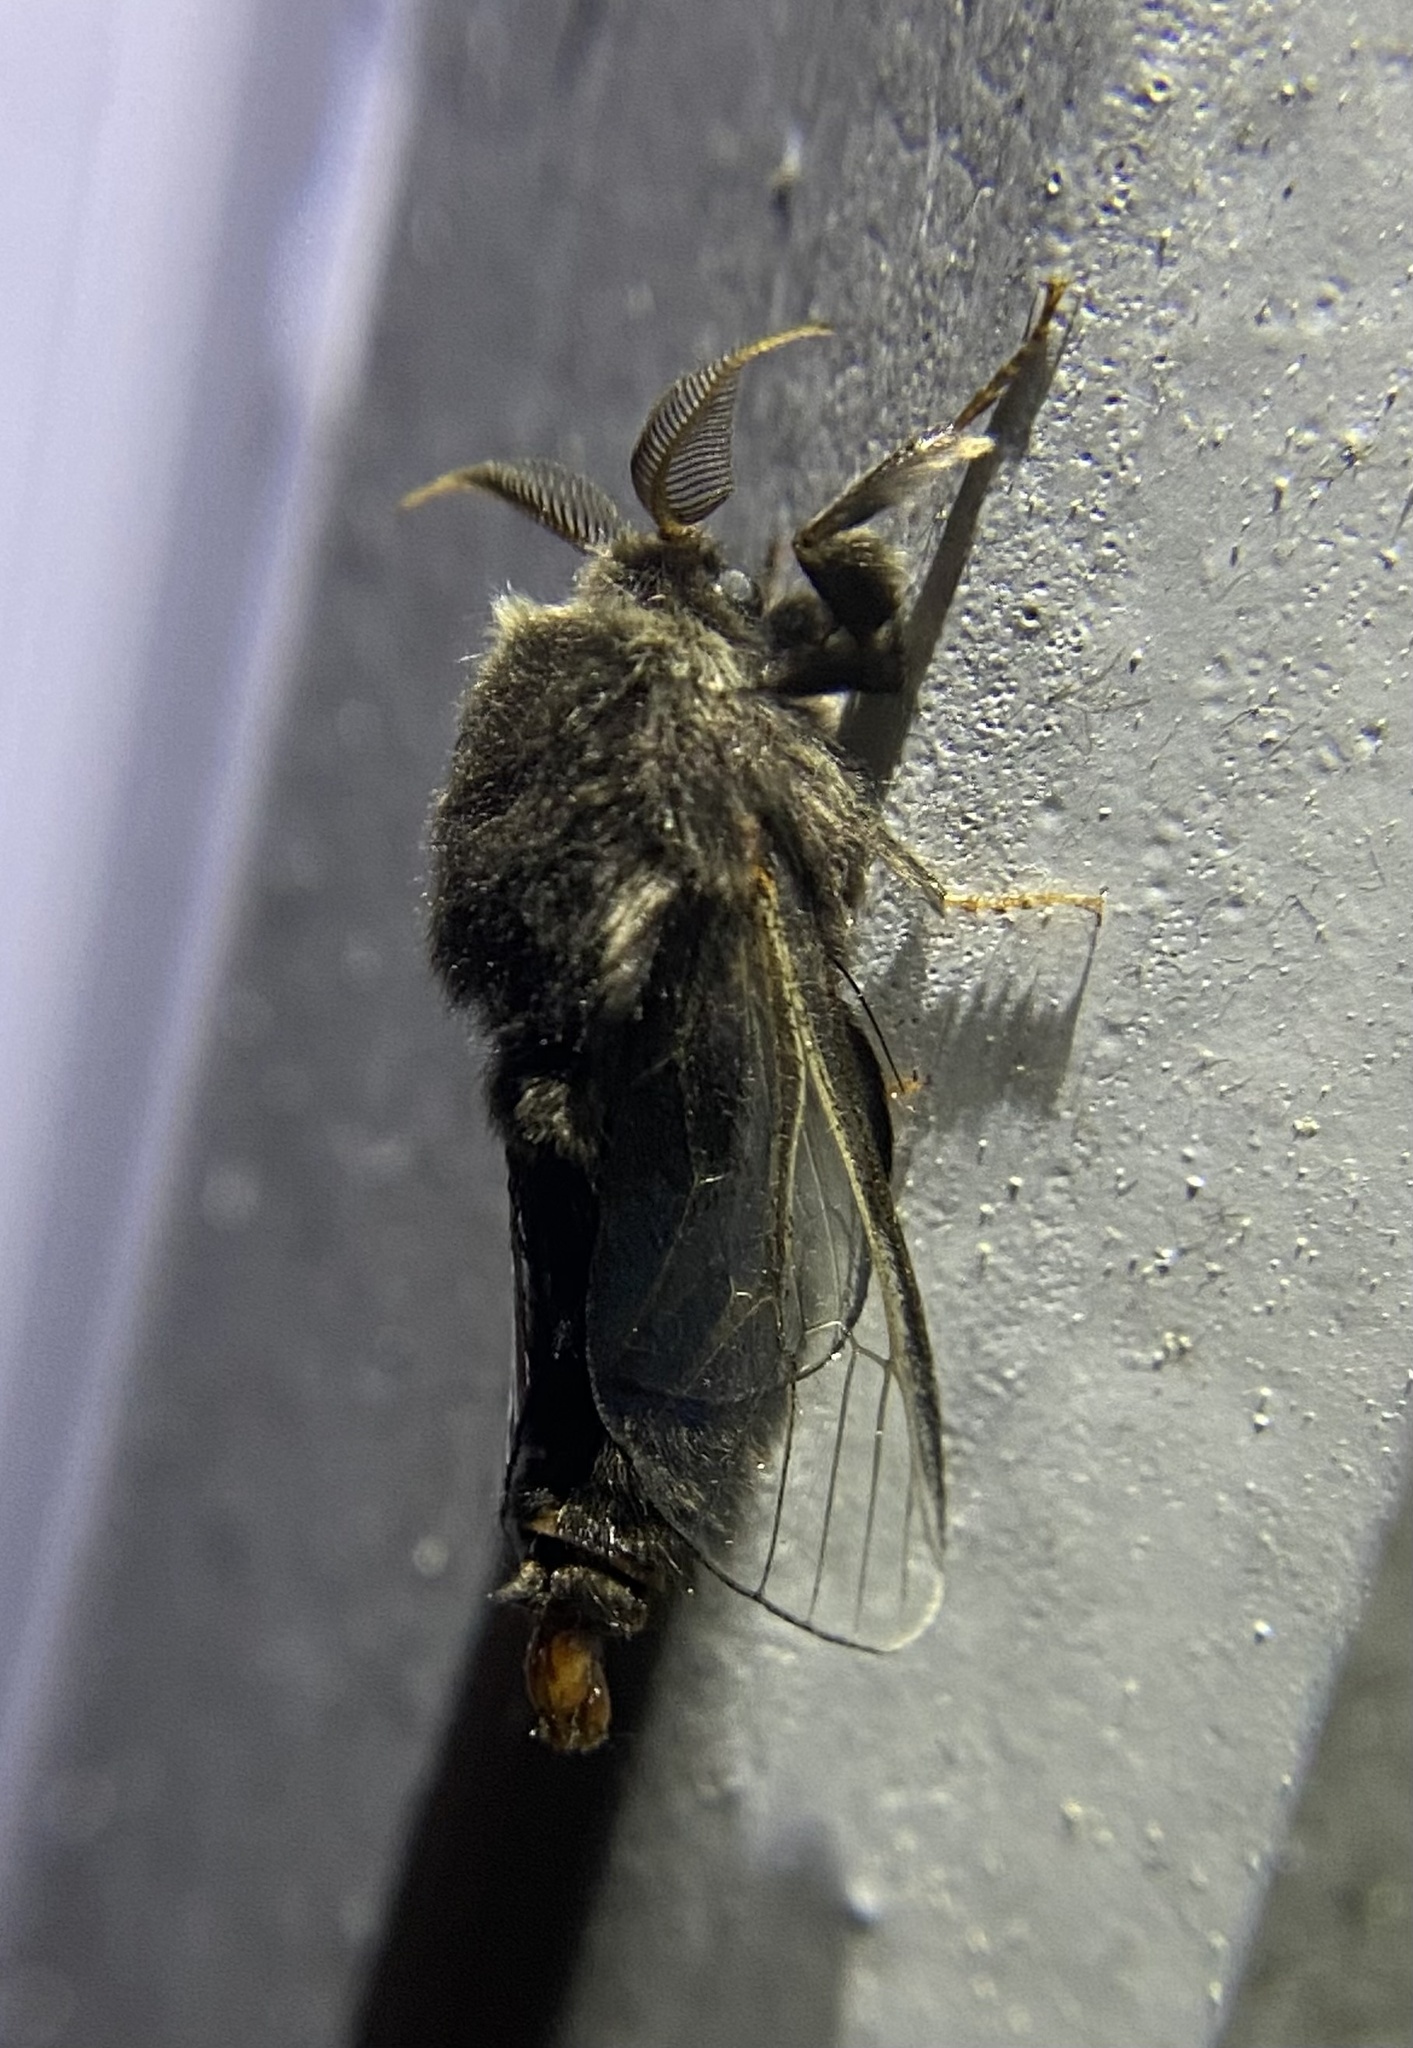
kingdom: Animalia
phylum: Arthropoda
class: Insecta
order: Lepidoptera
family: Psychidae
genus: Thyridopteryx
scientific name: Thyridopteryx ephemeraeformis
